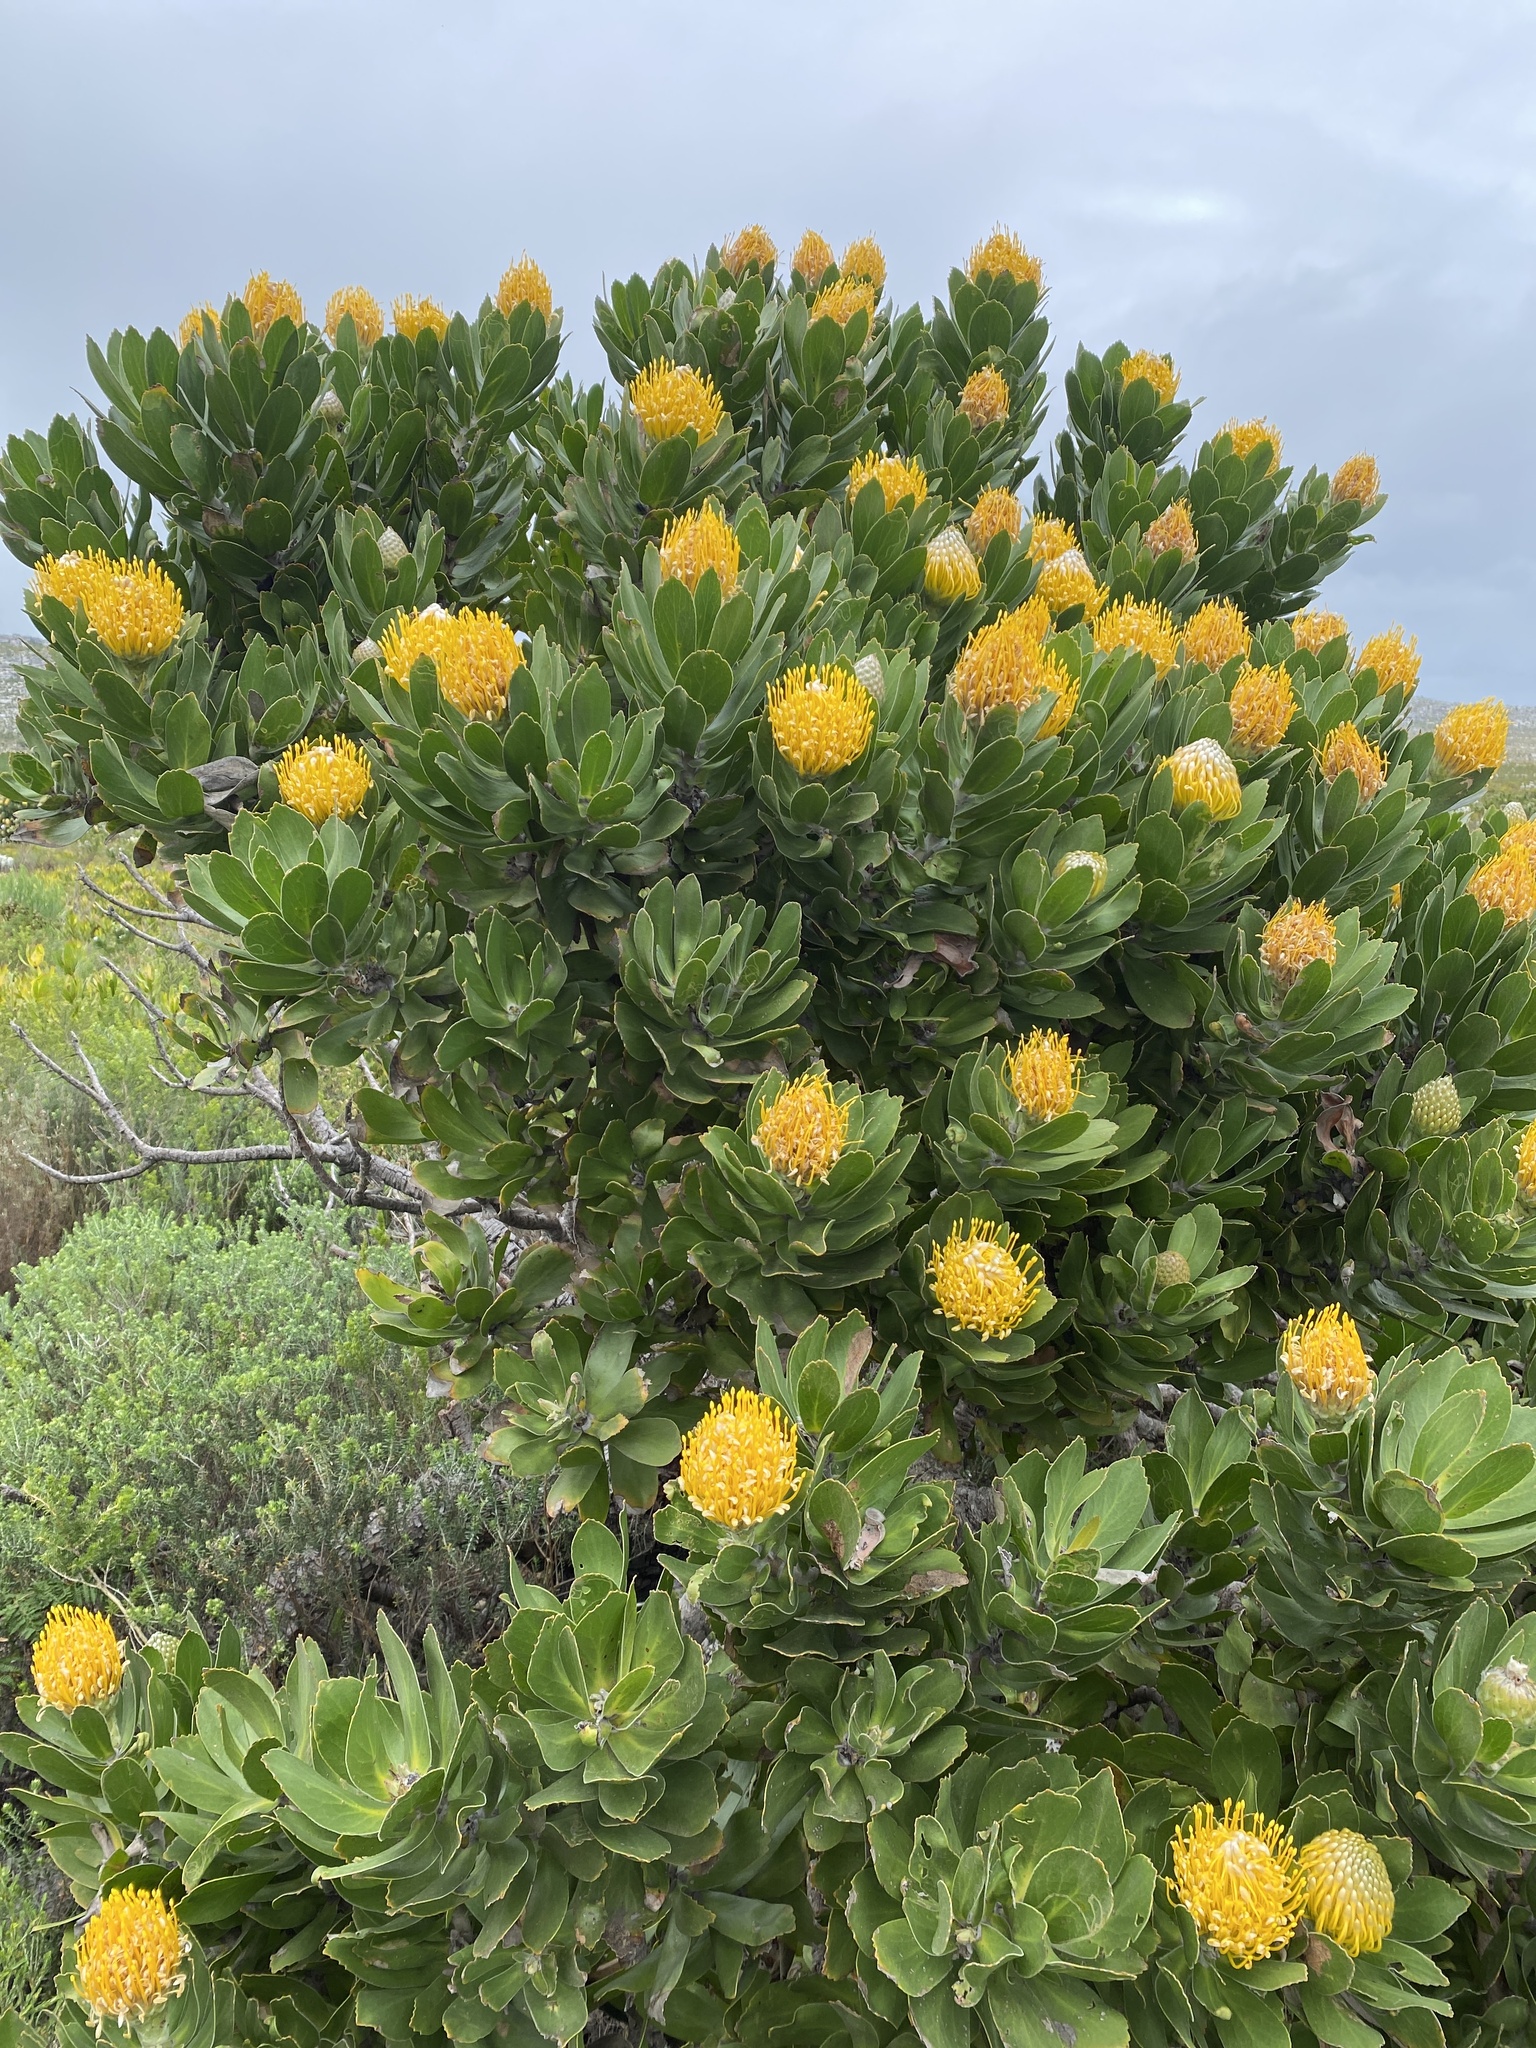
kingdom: Plantae
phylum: Tracheophyta
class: Magnoliopsida
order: Proteales
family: Proteaceae
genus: Leucospermum
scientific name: Leucospermum conocarpodendron
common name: Tree pincushion
